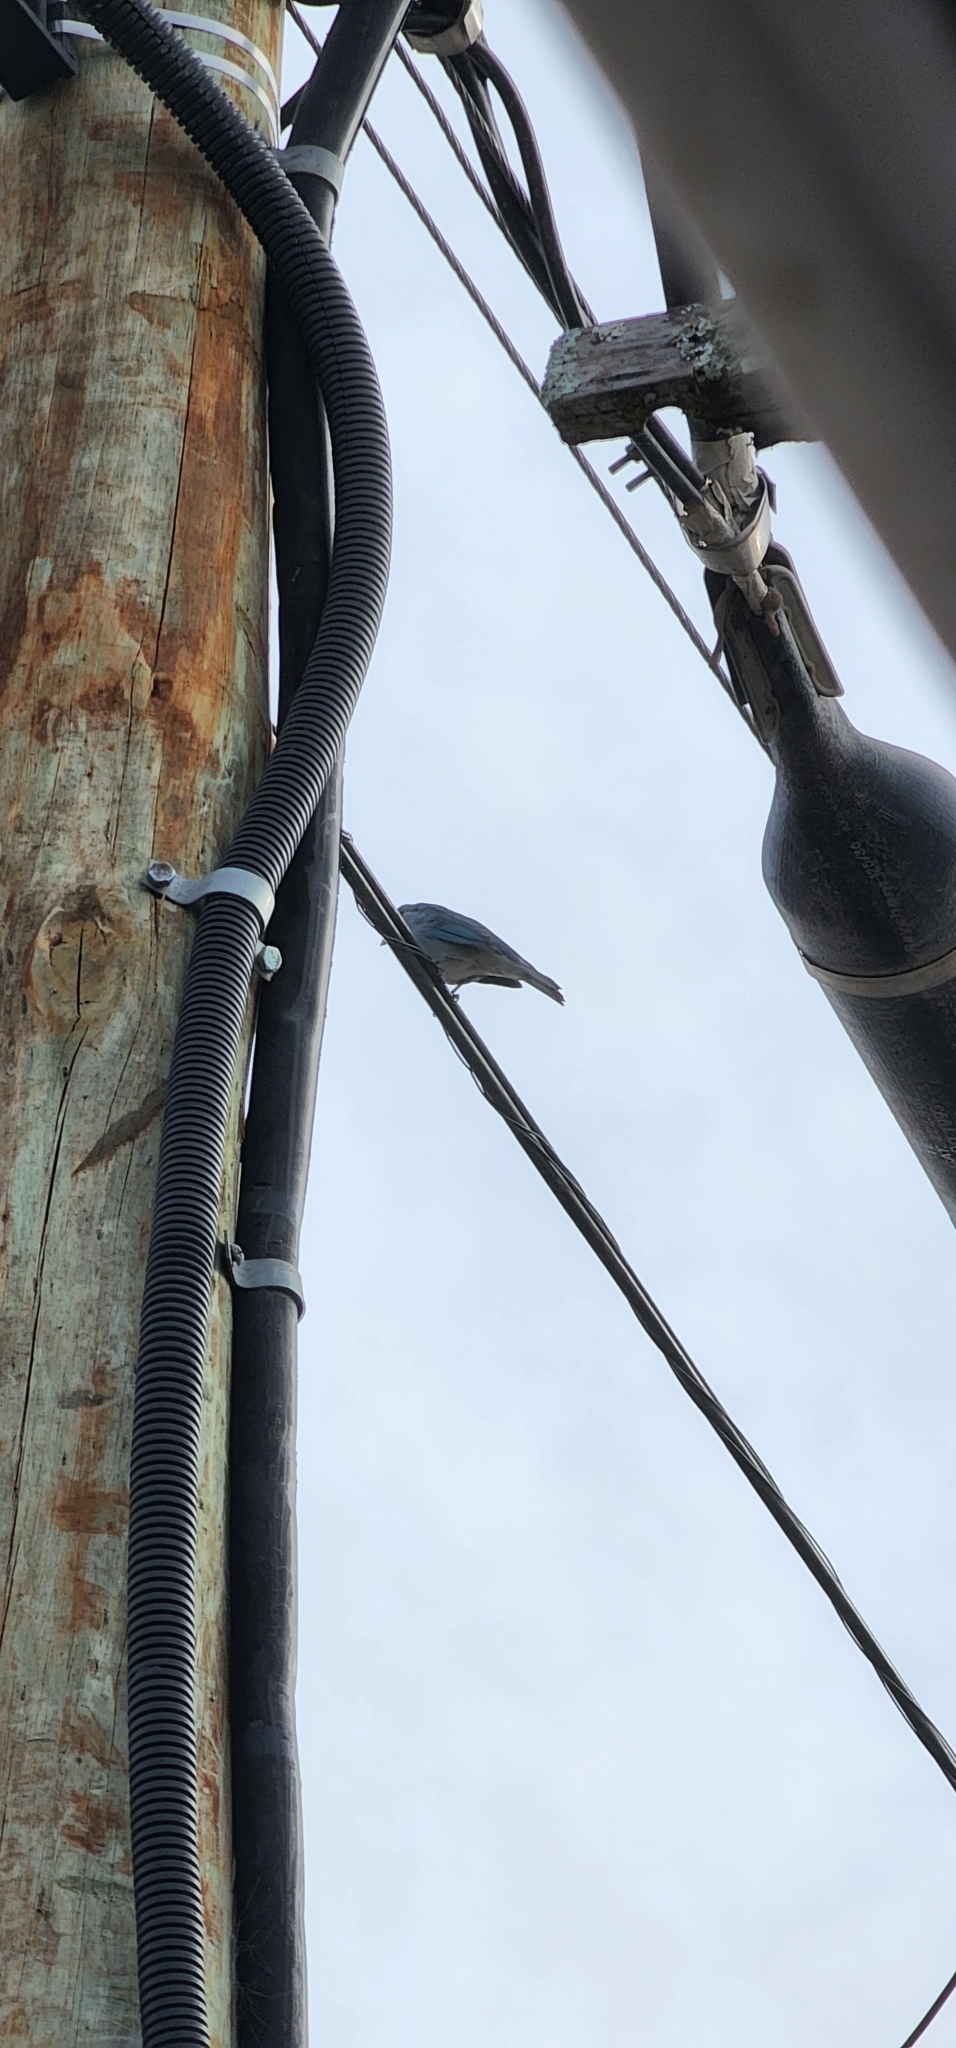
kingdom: Animalia
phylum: Chordata
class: Aves
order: Passeriformes
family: Thraupidae
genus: Thraupis
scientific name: Thraupis sayaca
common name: Sayaca tanager
